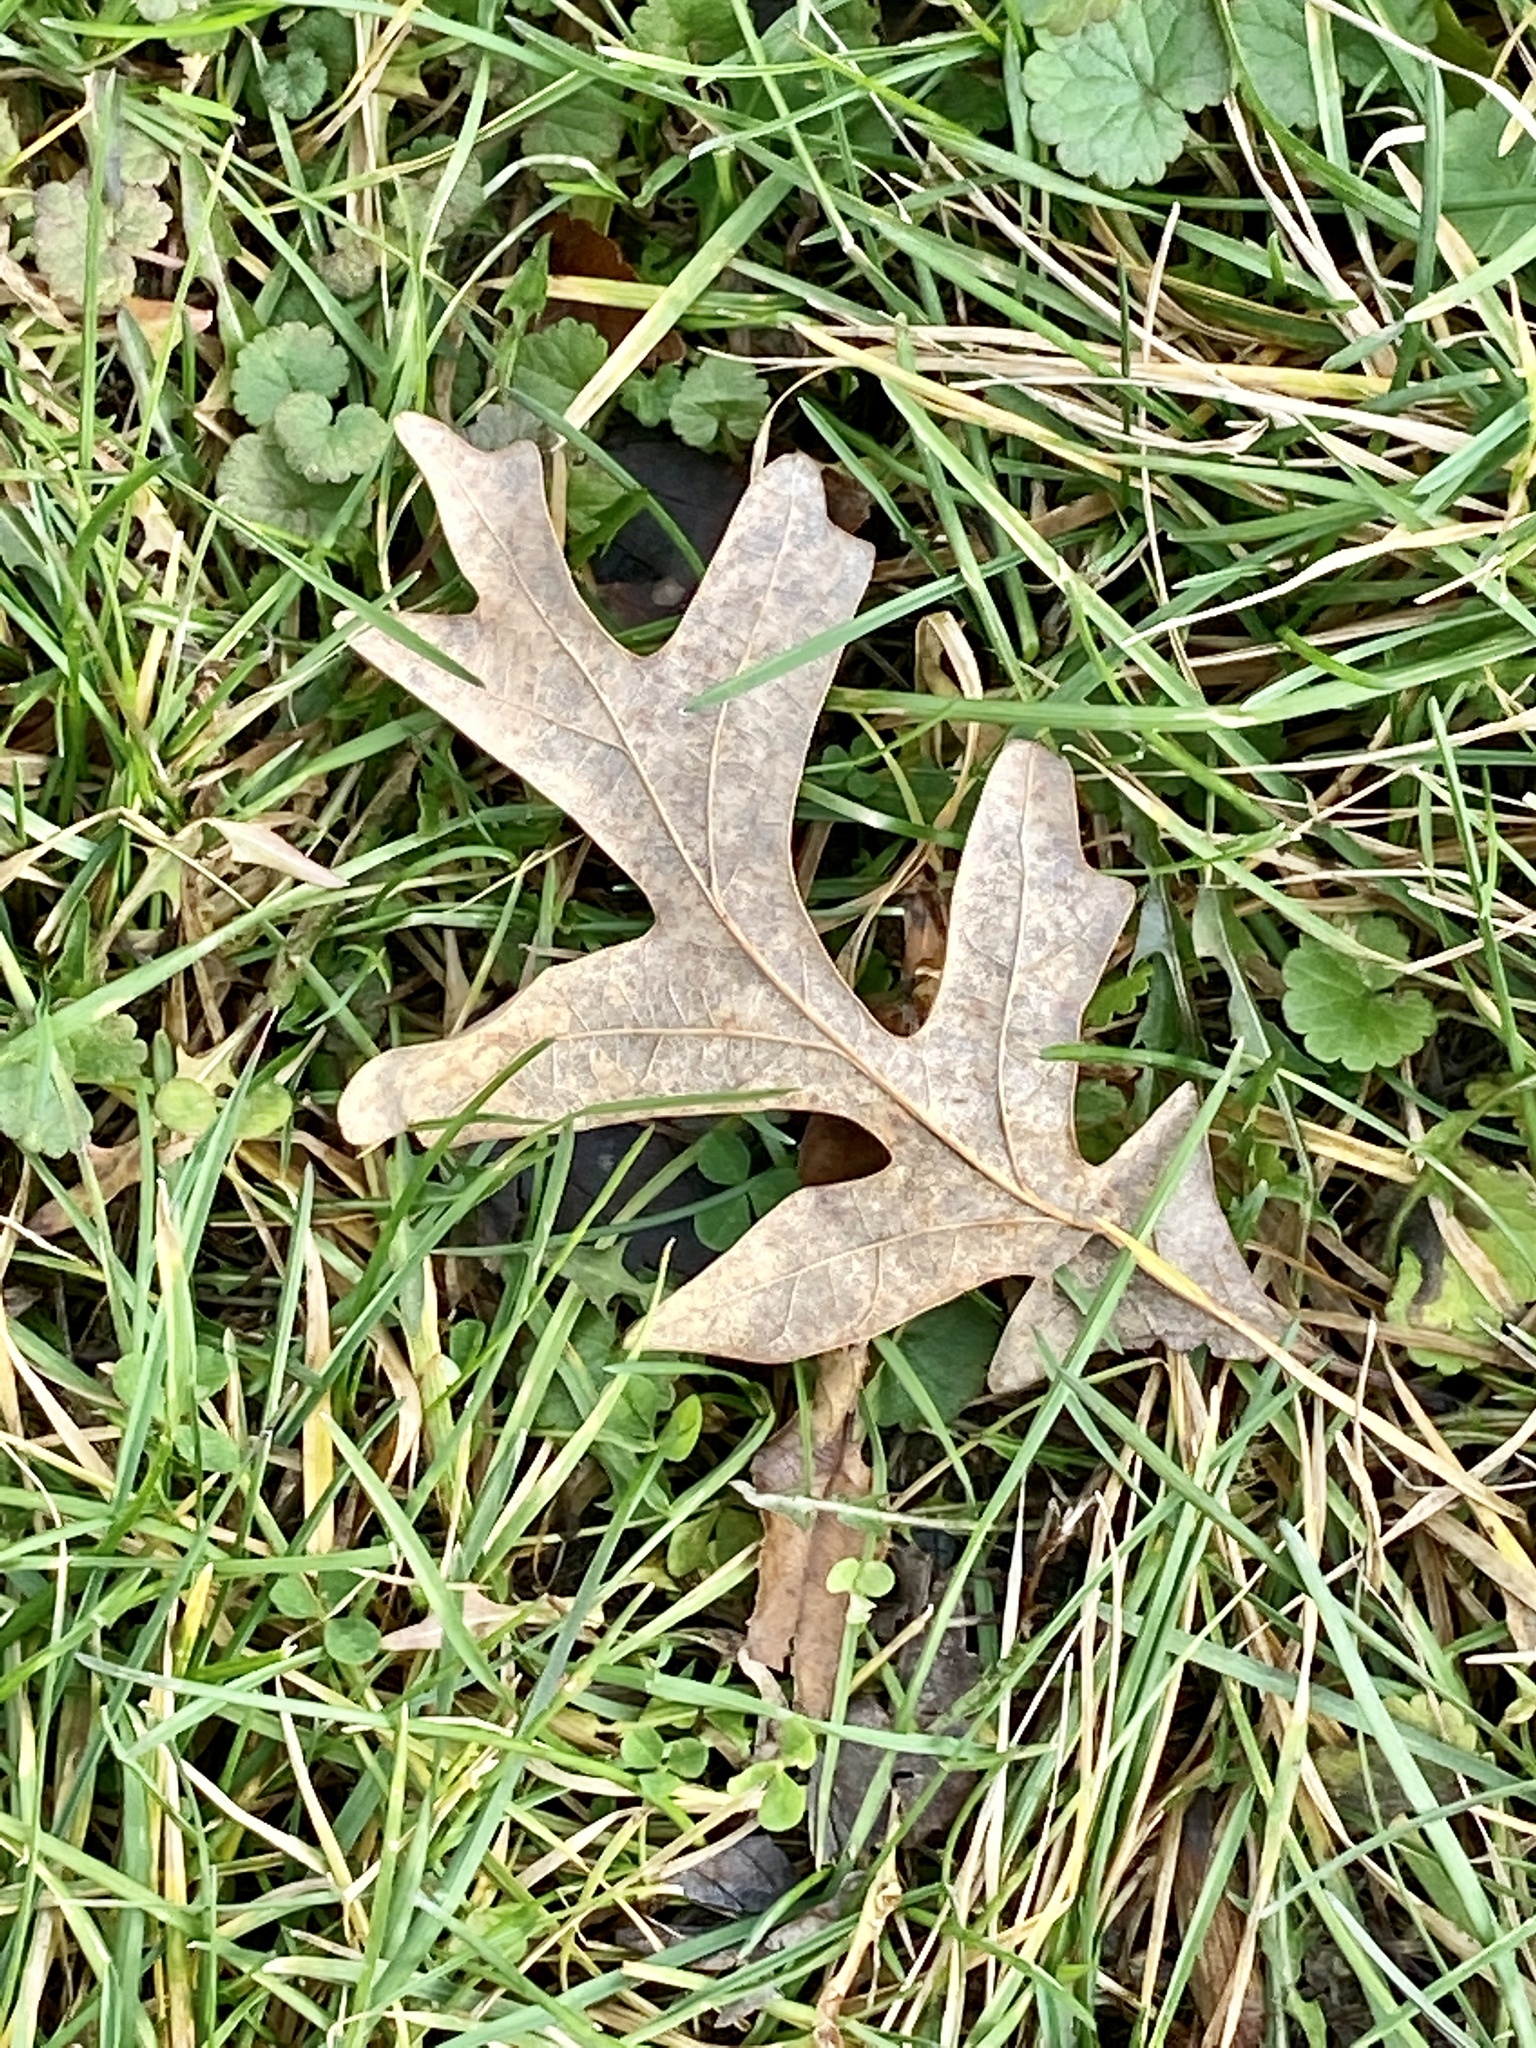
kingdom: Plantae
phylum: Tracheophyta
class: Magnoliopsida
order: Fagales
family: Fagaceae
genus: Quercus
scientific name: Quercus alba
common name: White oak
